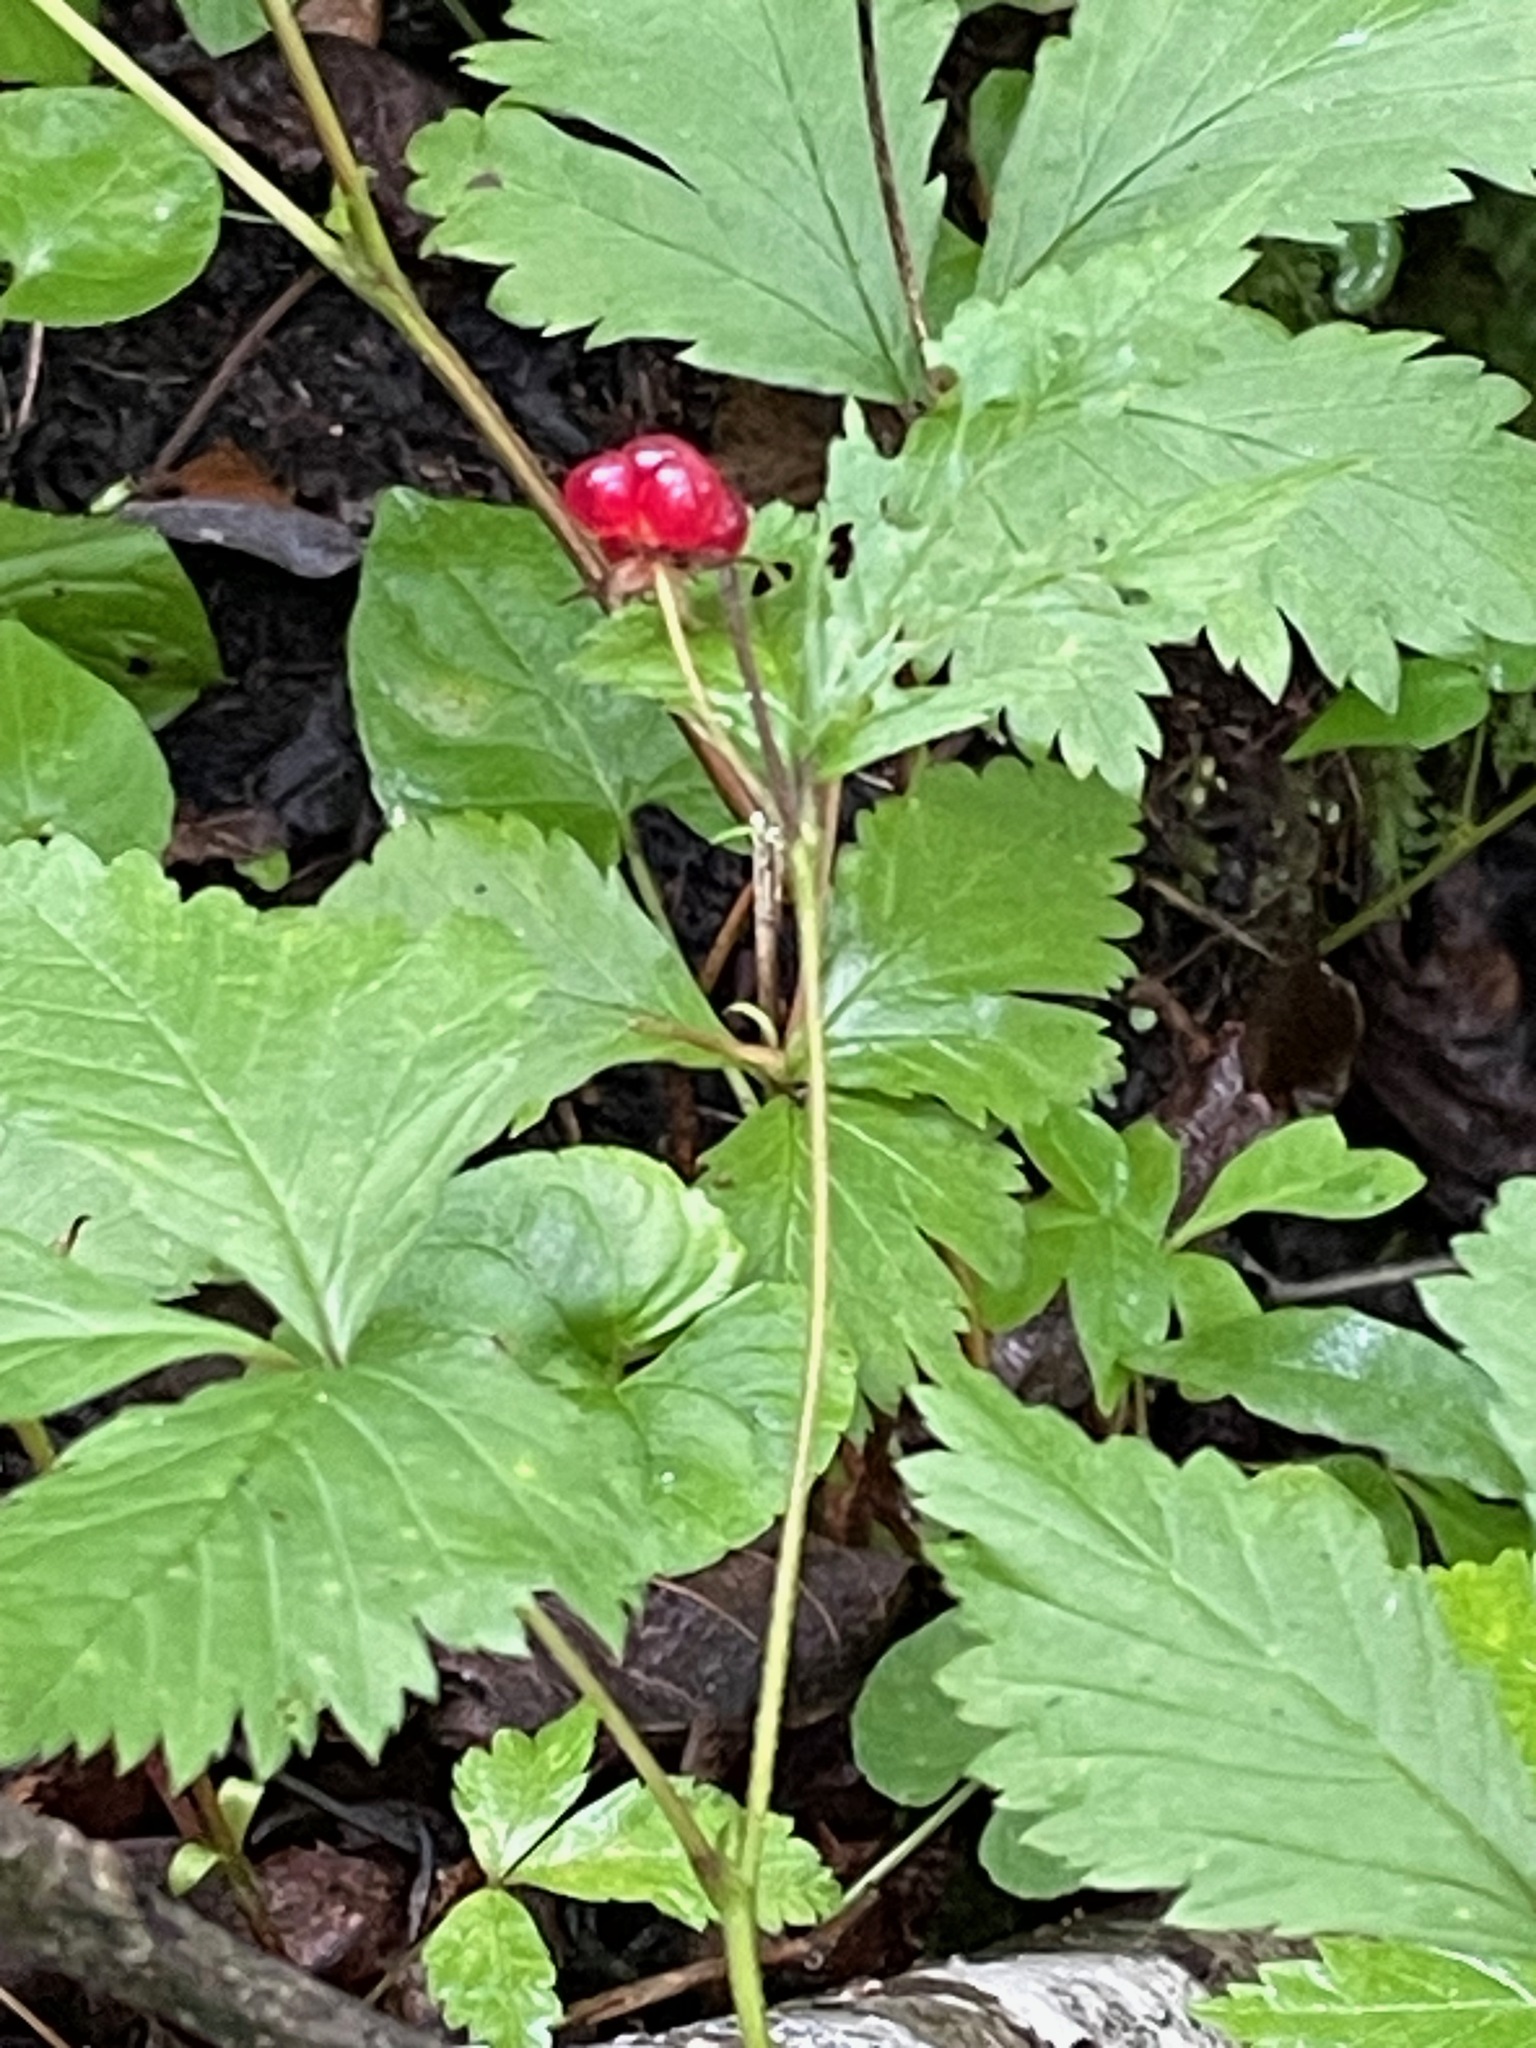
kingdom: Plantae
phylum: Tracheophyta
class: Magnoliopsida
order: Rosales
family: Rosaceae
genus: Rubus
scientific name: Rubus pubescens
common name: Dwarf raspberry
